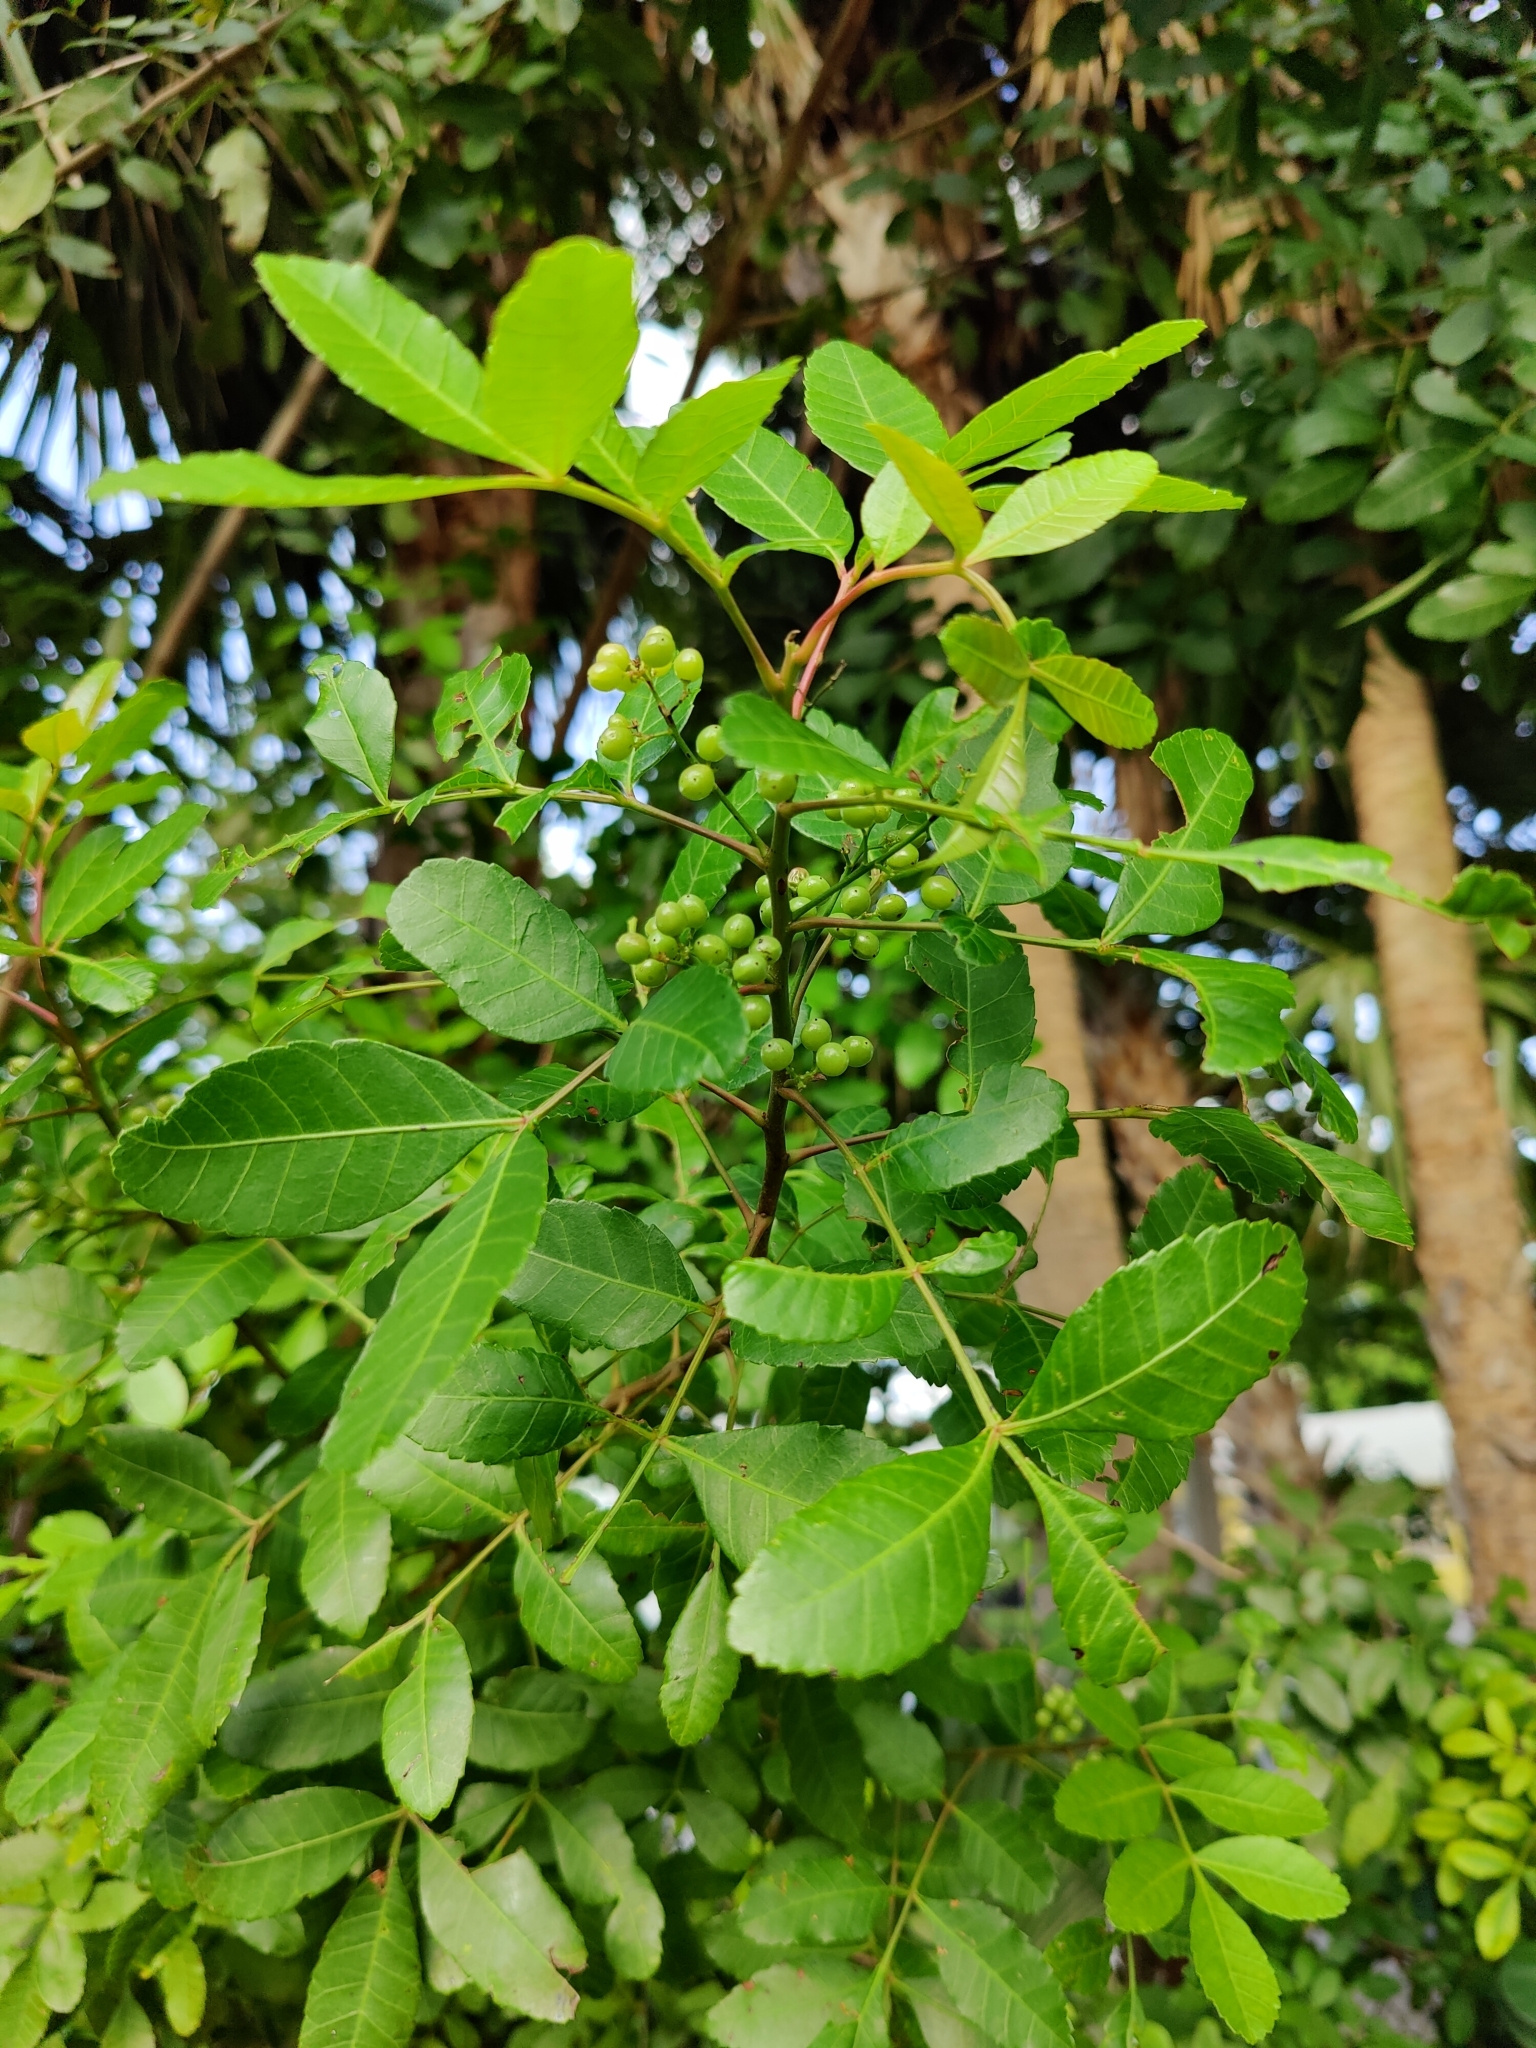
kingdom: Plantae
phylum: Tracheophyta
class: Magnoliopsida
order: Sapindales
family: Anacardiaceae
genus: Schinus
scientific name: Schinus terebinthifolia
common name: Brazilian peppertree
